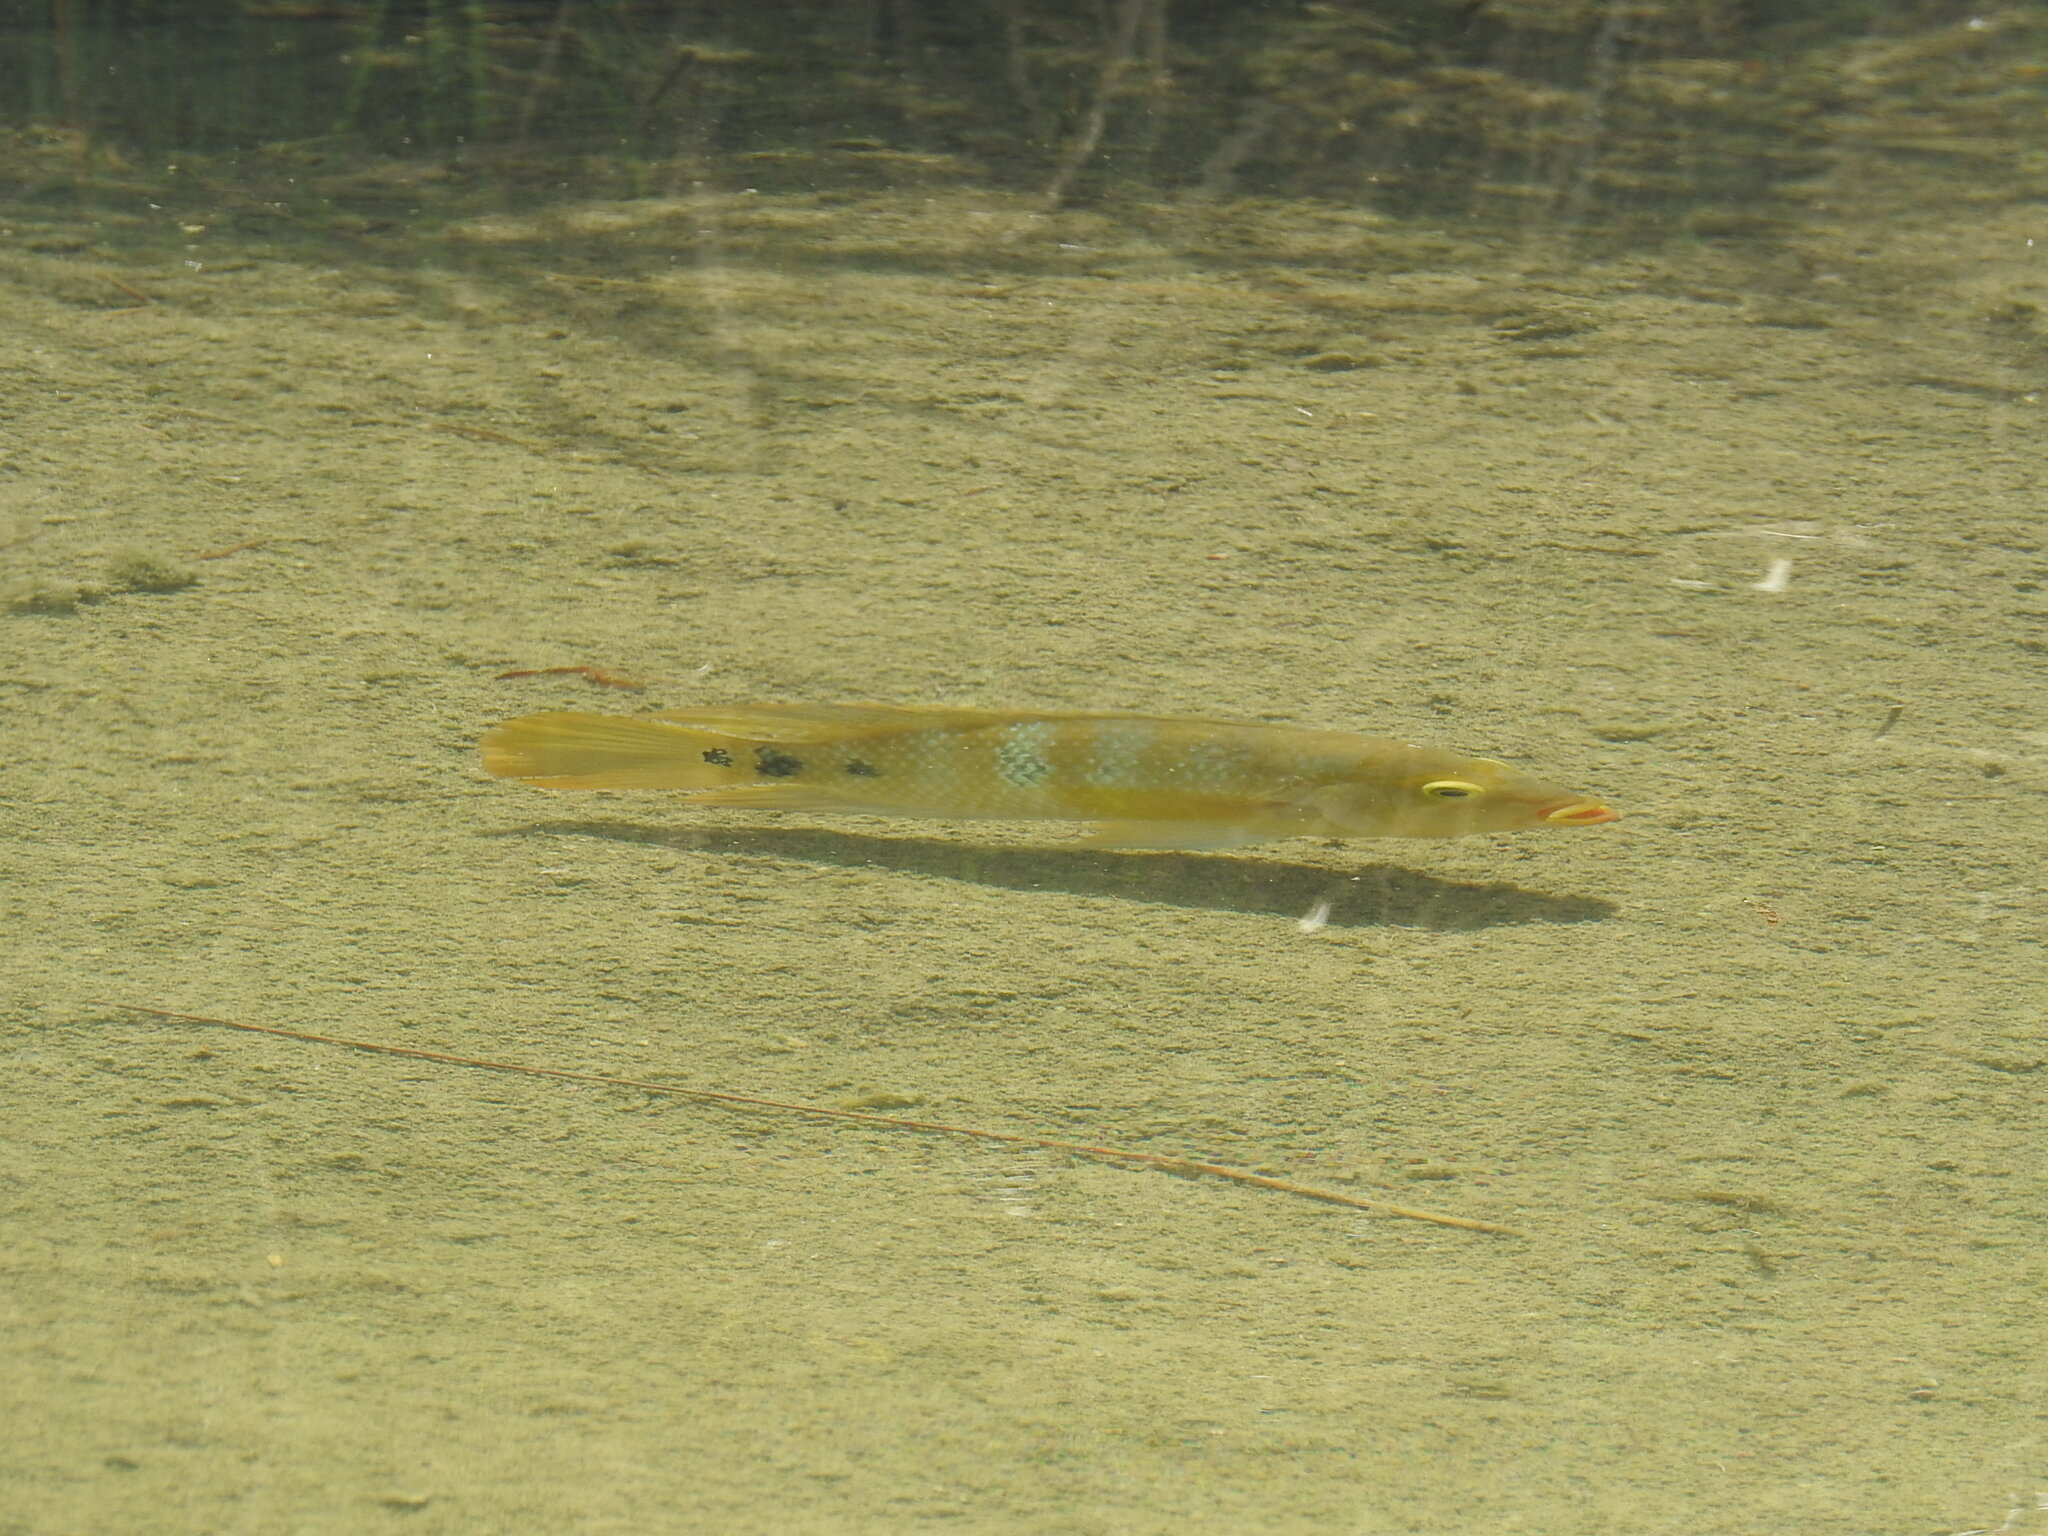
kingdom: Animalia
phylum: Chordata
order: Perciformes
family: Cichlidae
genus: Mayaheros
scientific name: Mayaheros urophthalmus
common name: Mayan cichlid
